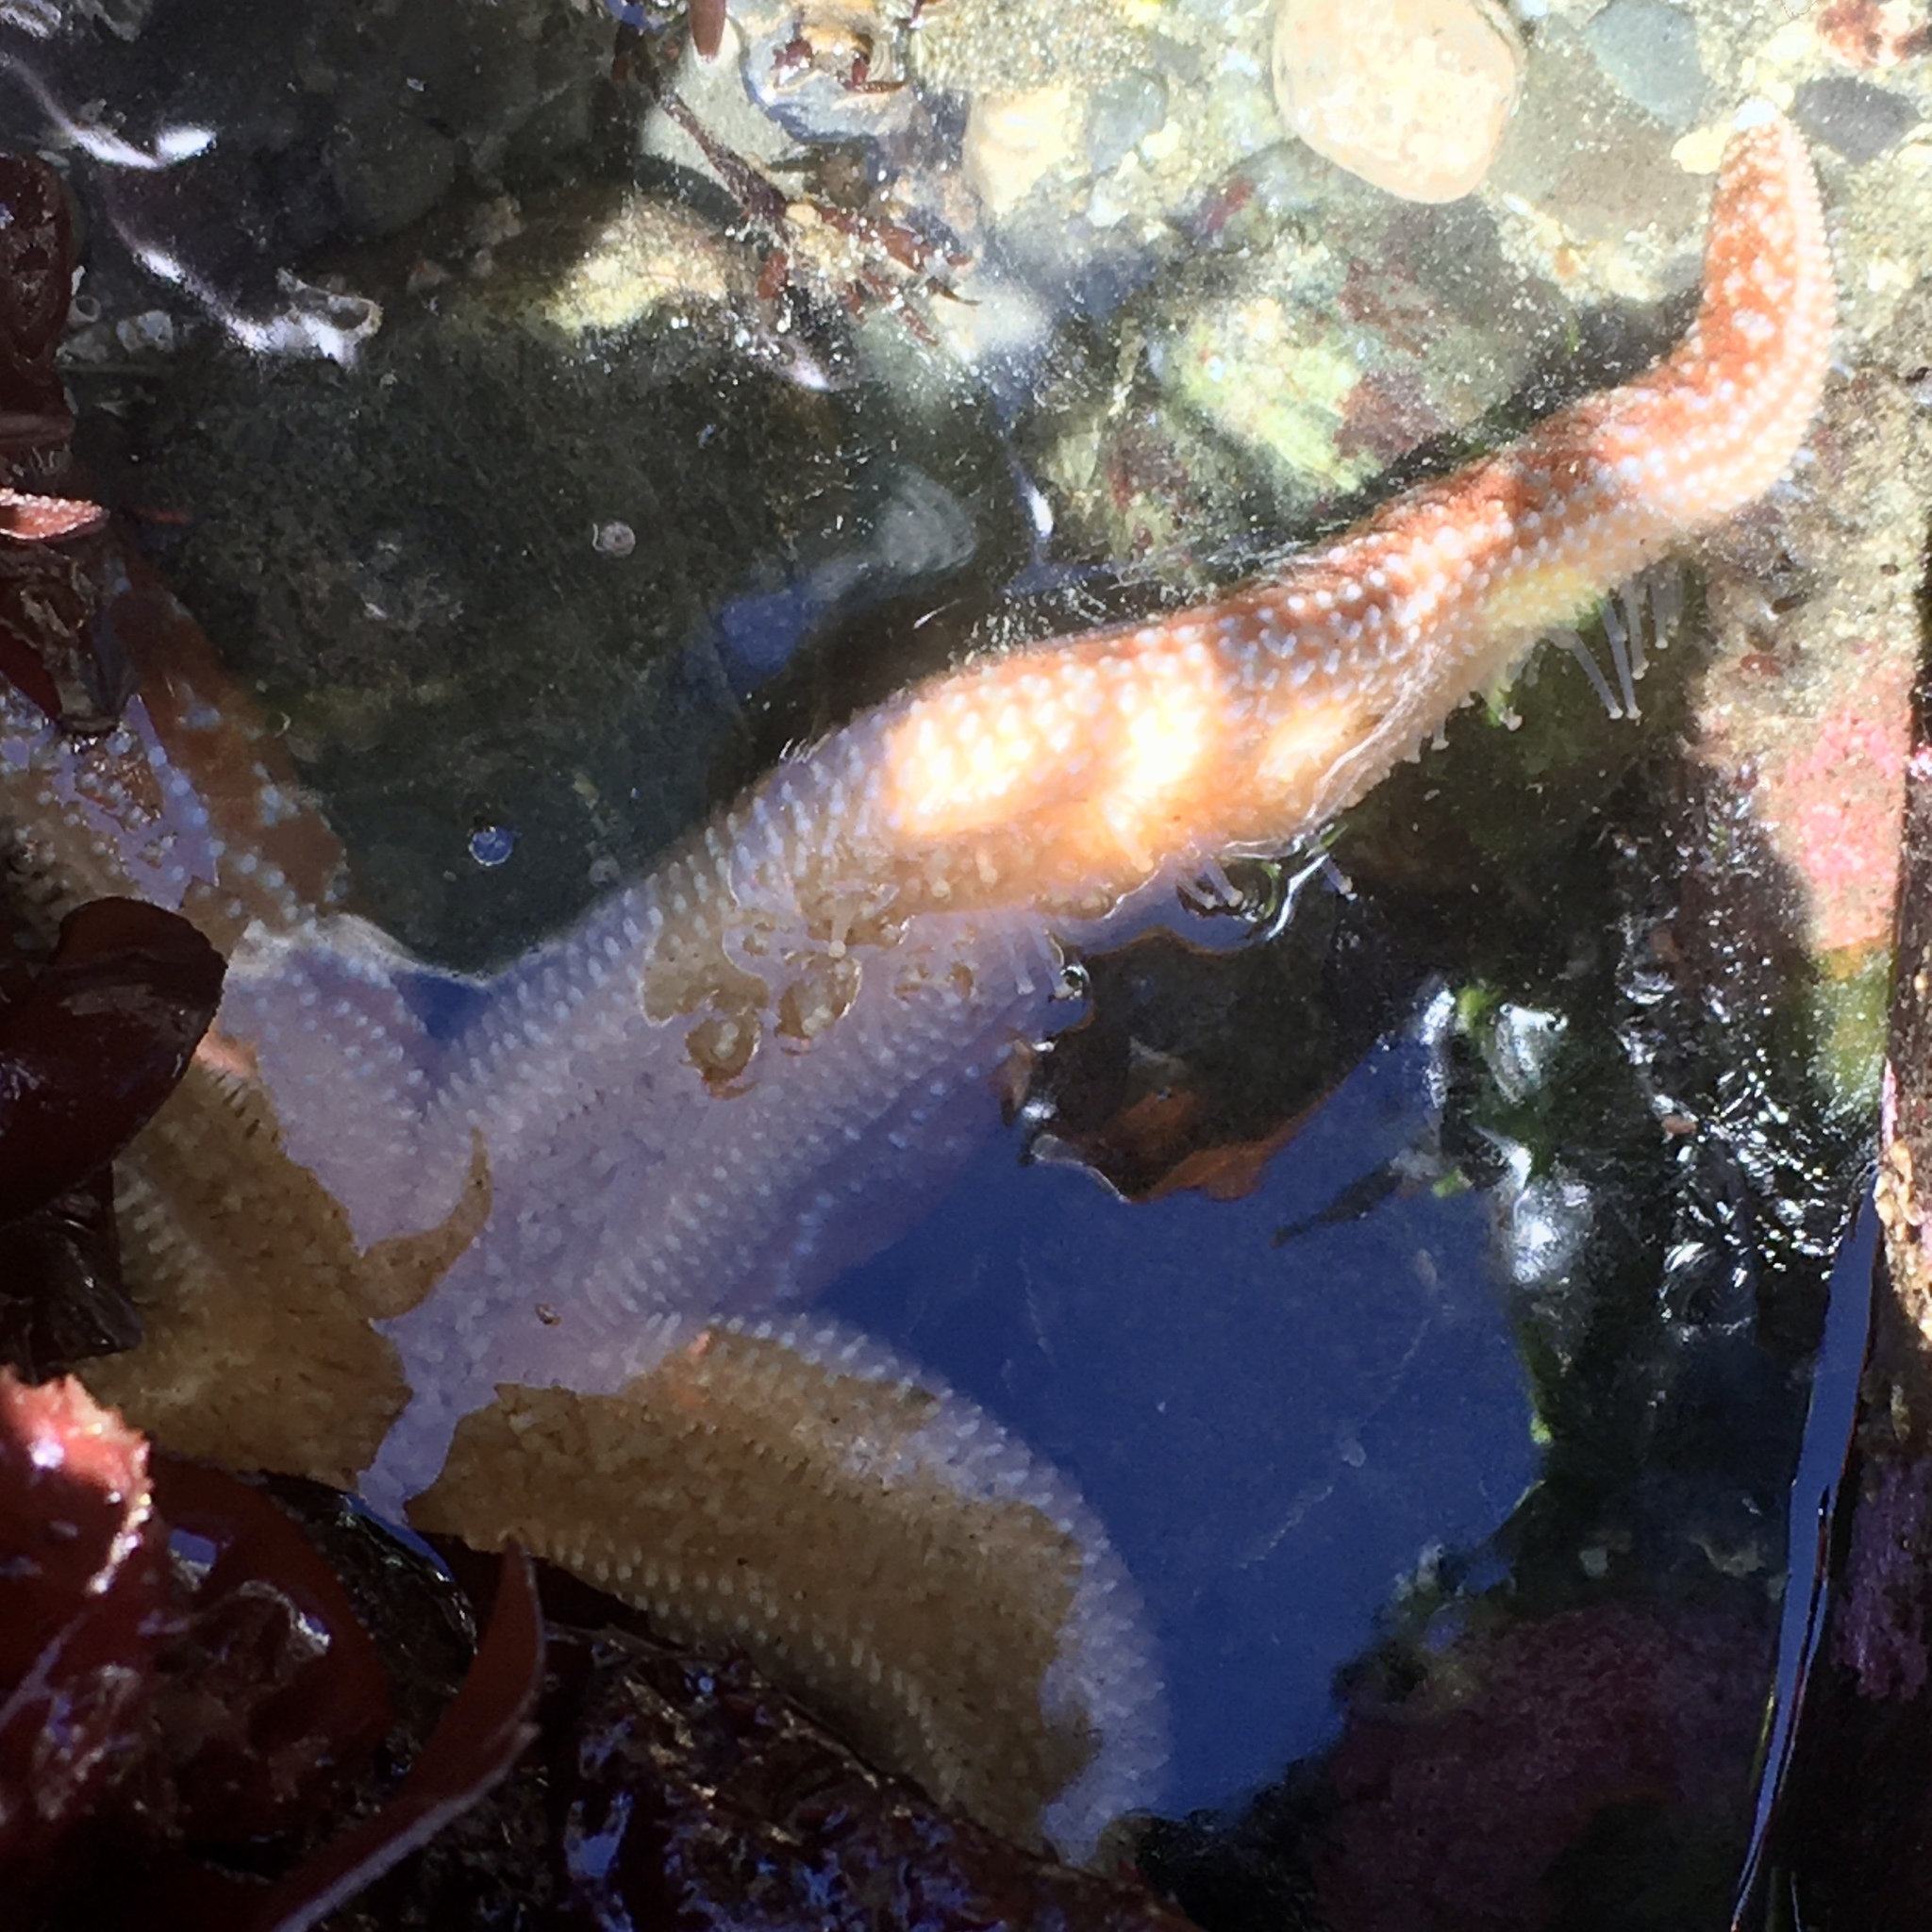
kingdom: Animalia
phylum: Echinodermata
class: Asteroidea
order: Forcipulatida
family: Asteriidae
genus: Evasterias
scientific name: Evasterias troschelii
